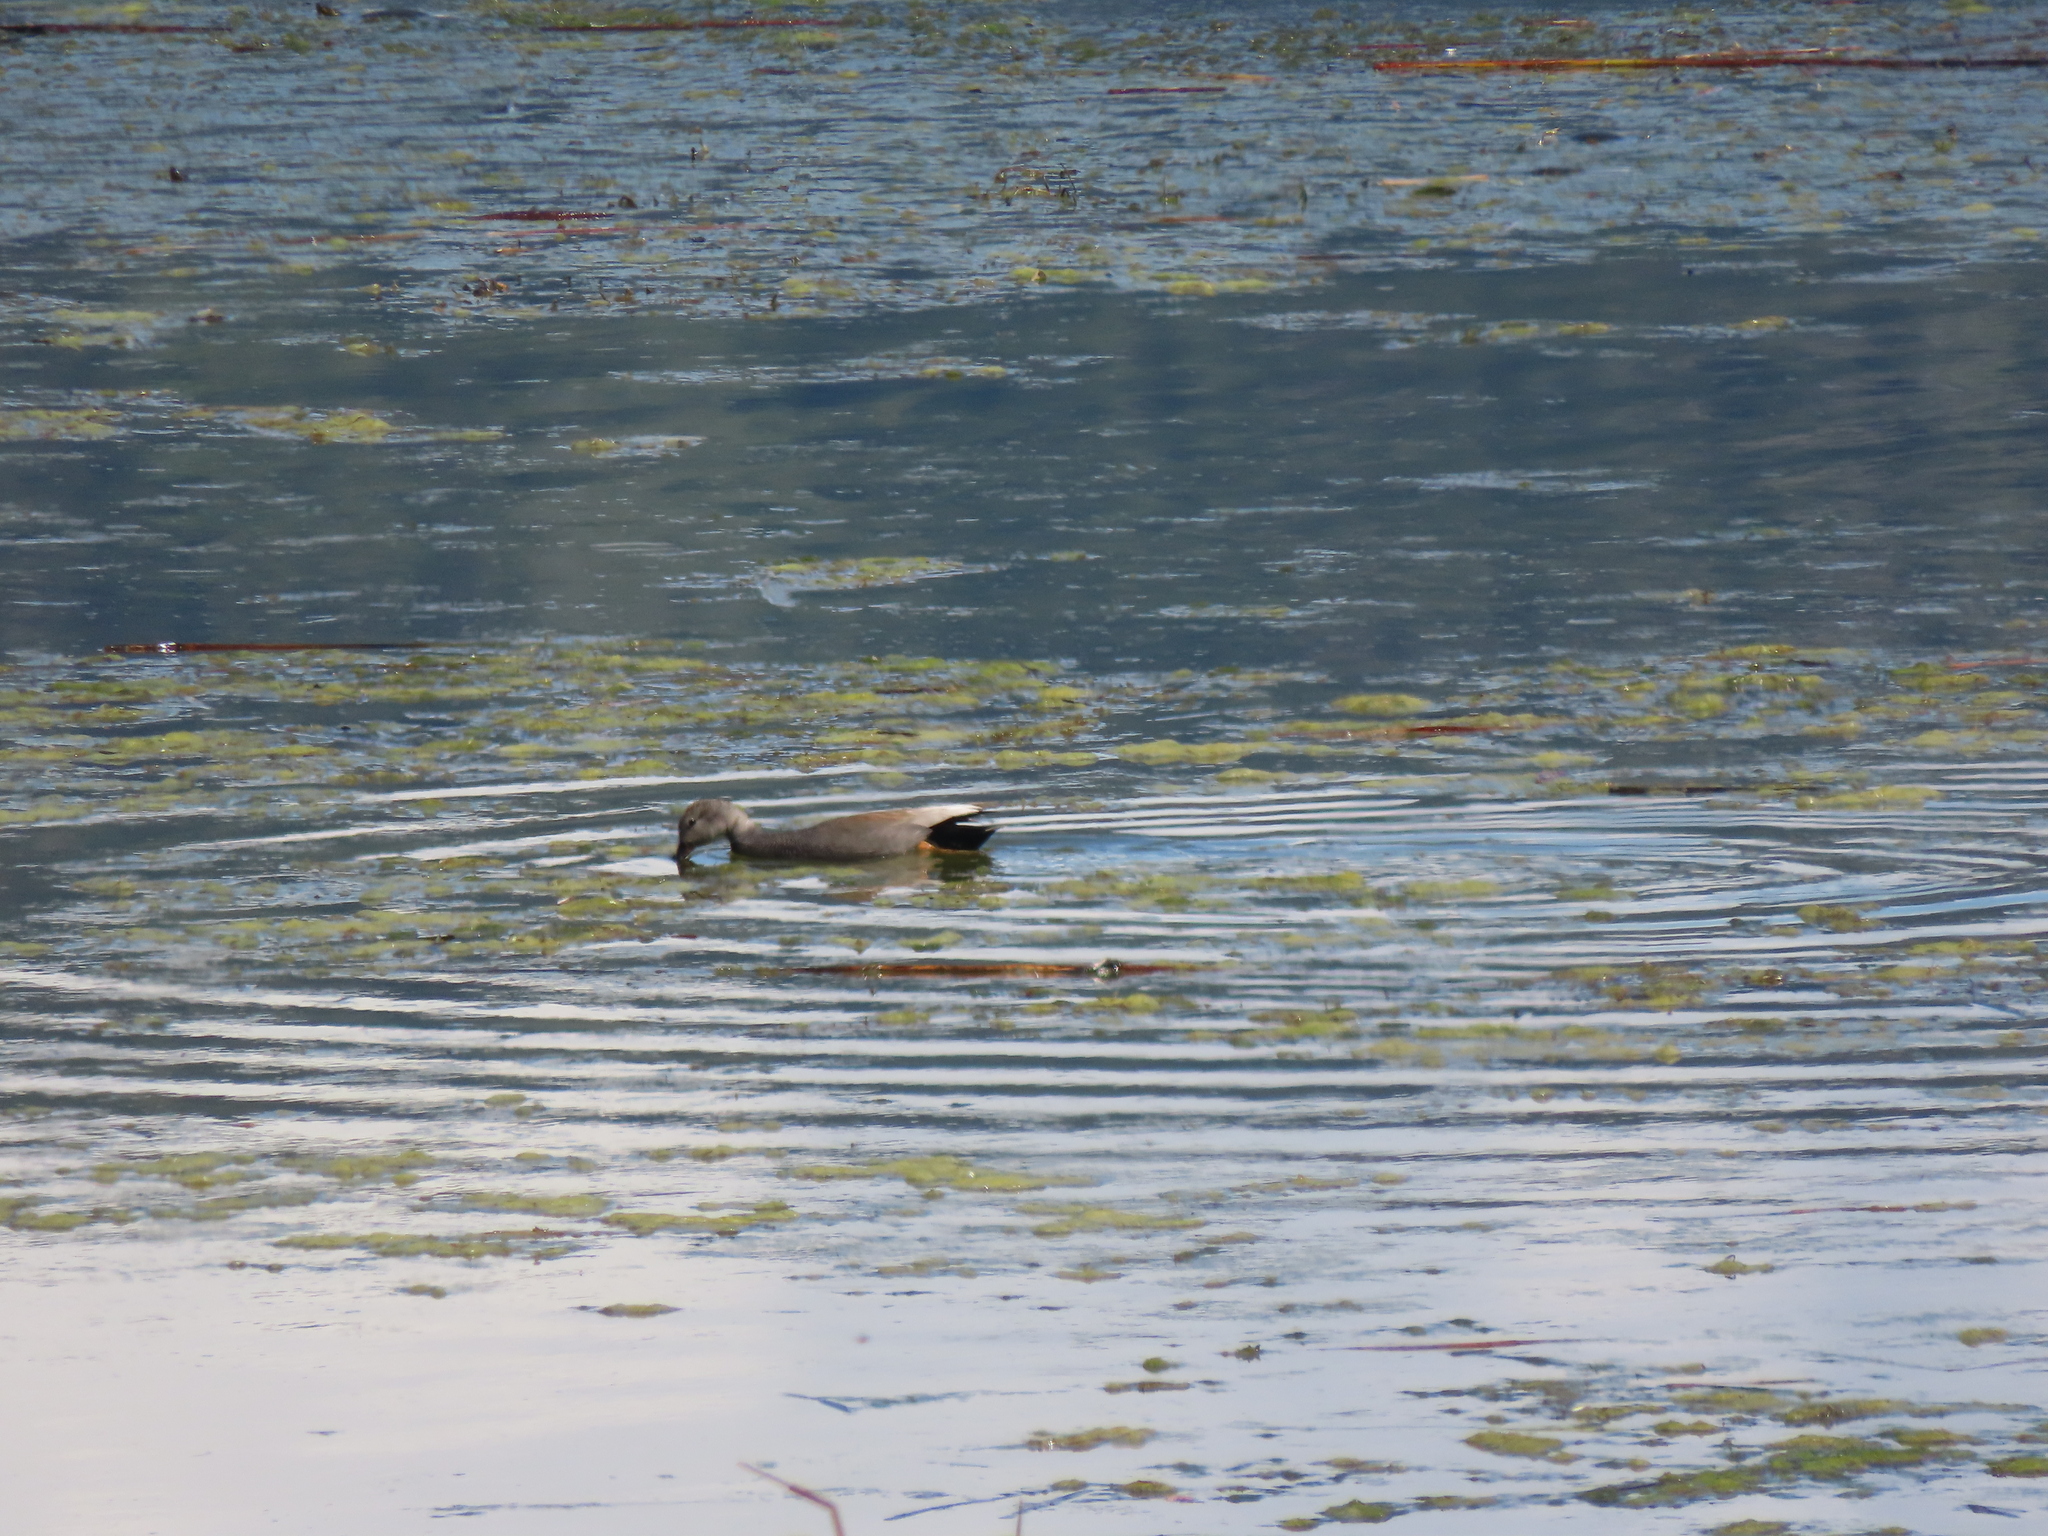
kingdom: Animalia
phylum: Chordata
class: Aves
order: Anseriformes
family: Anatidae
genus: Mareca
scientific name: Mareca strepera
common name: Gadwall
